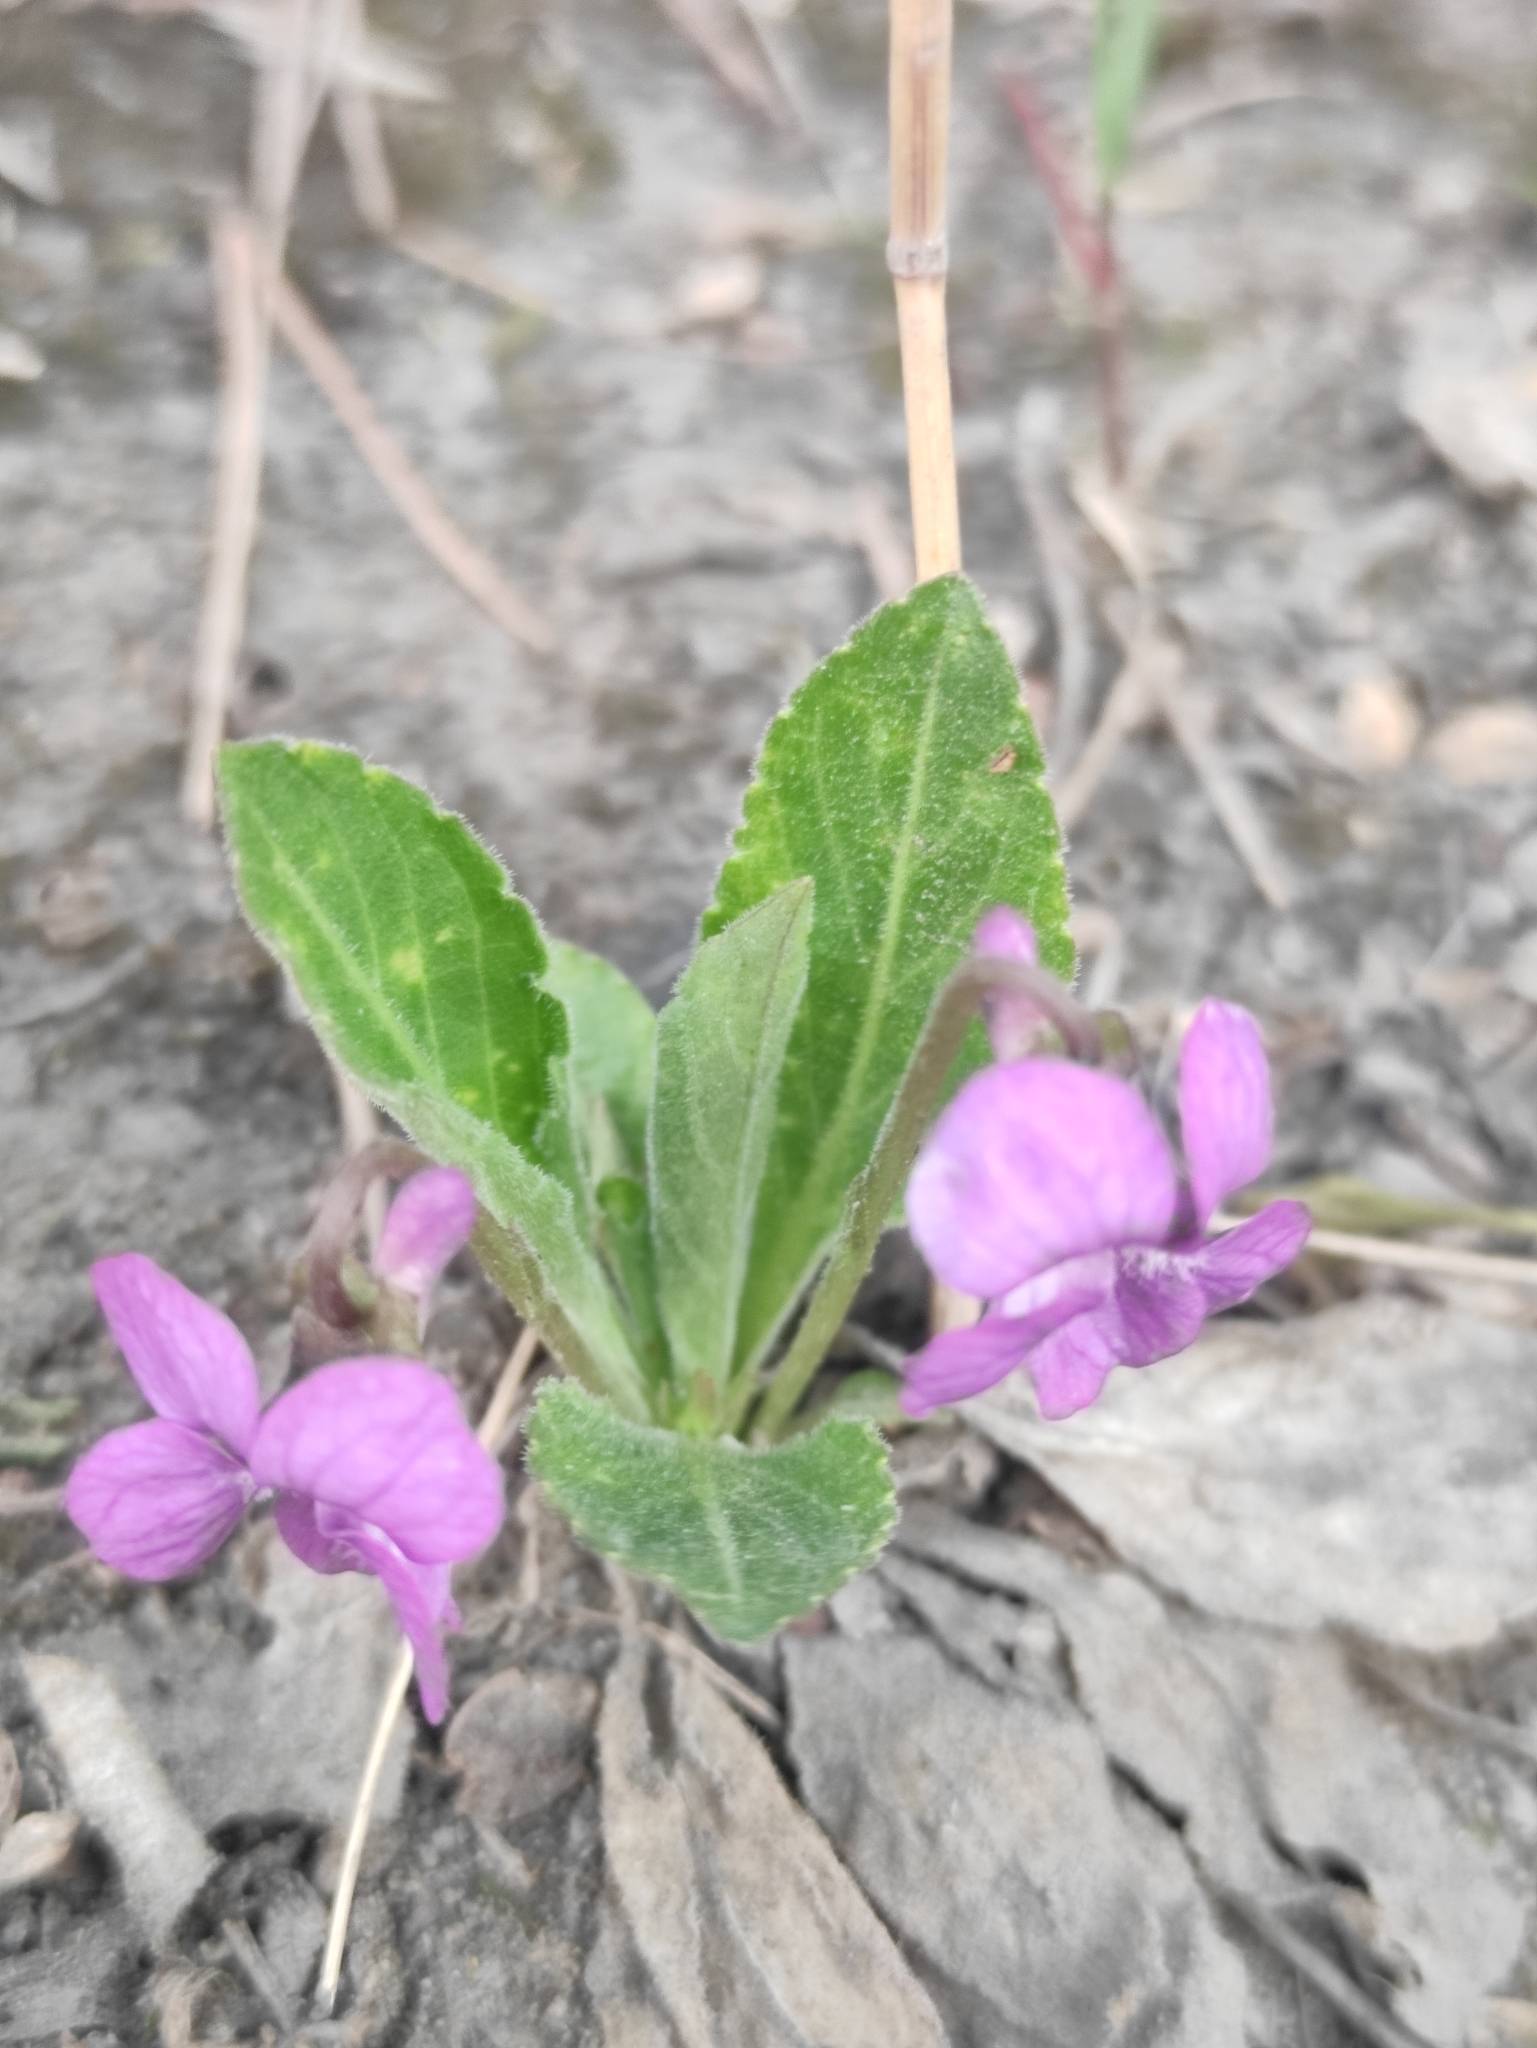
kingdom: Plantae
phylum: Tracheophyta
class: Magnoliopsida
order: Malpighiales
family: Violaceae
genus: Viola
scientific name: Viola gmeliniana
